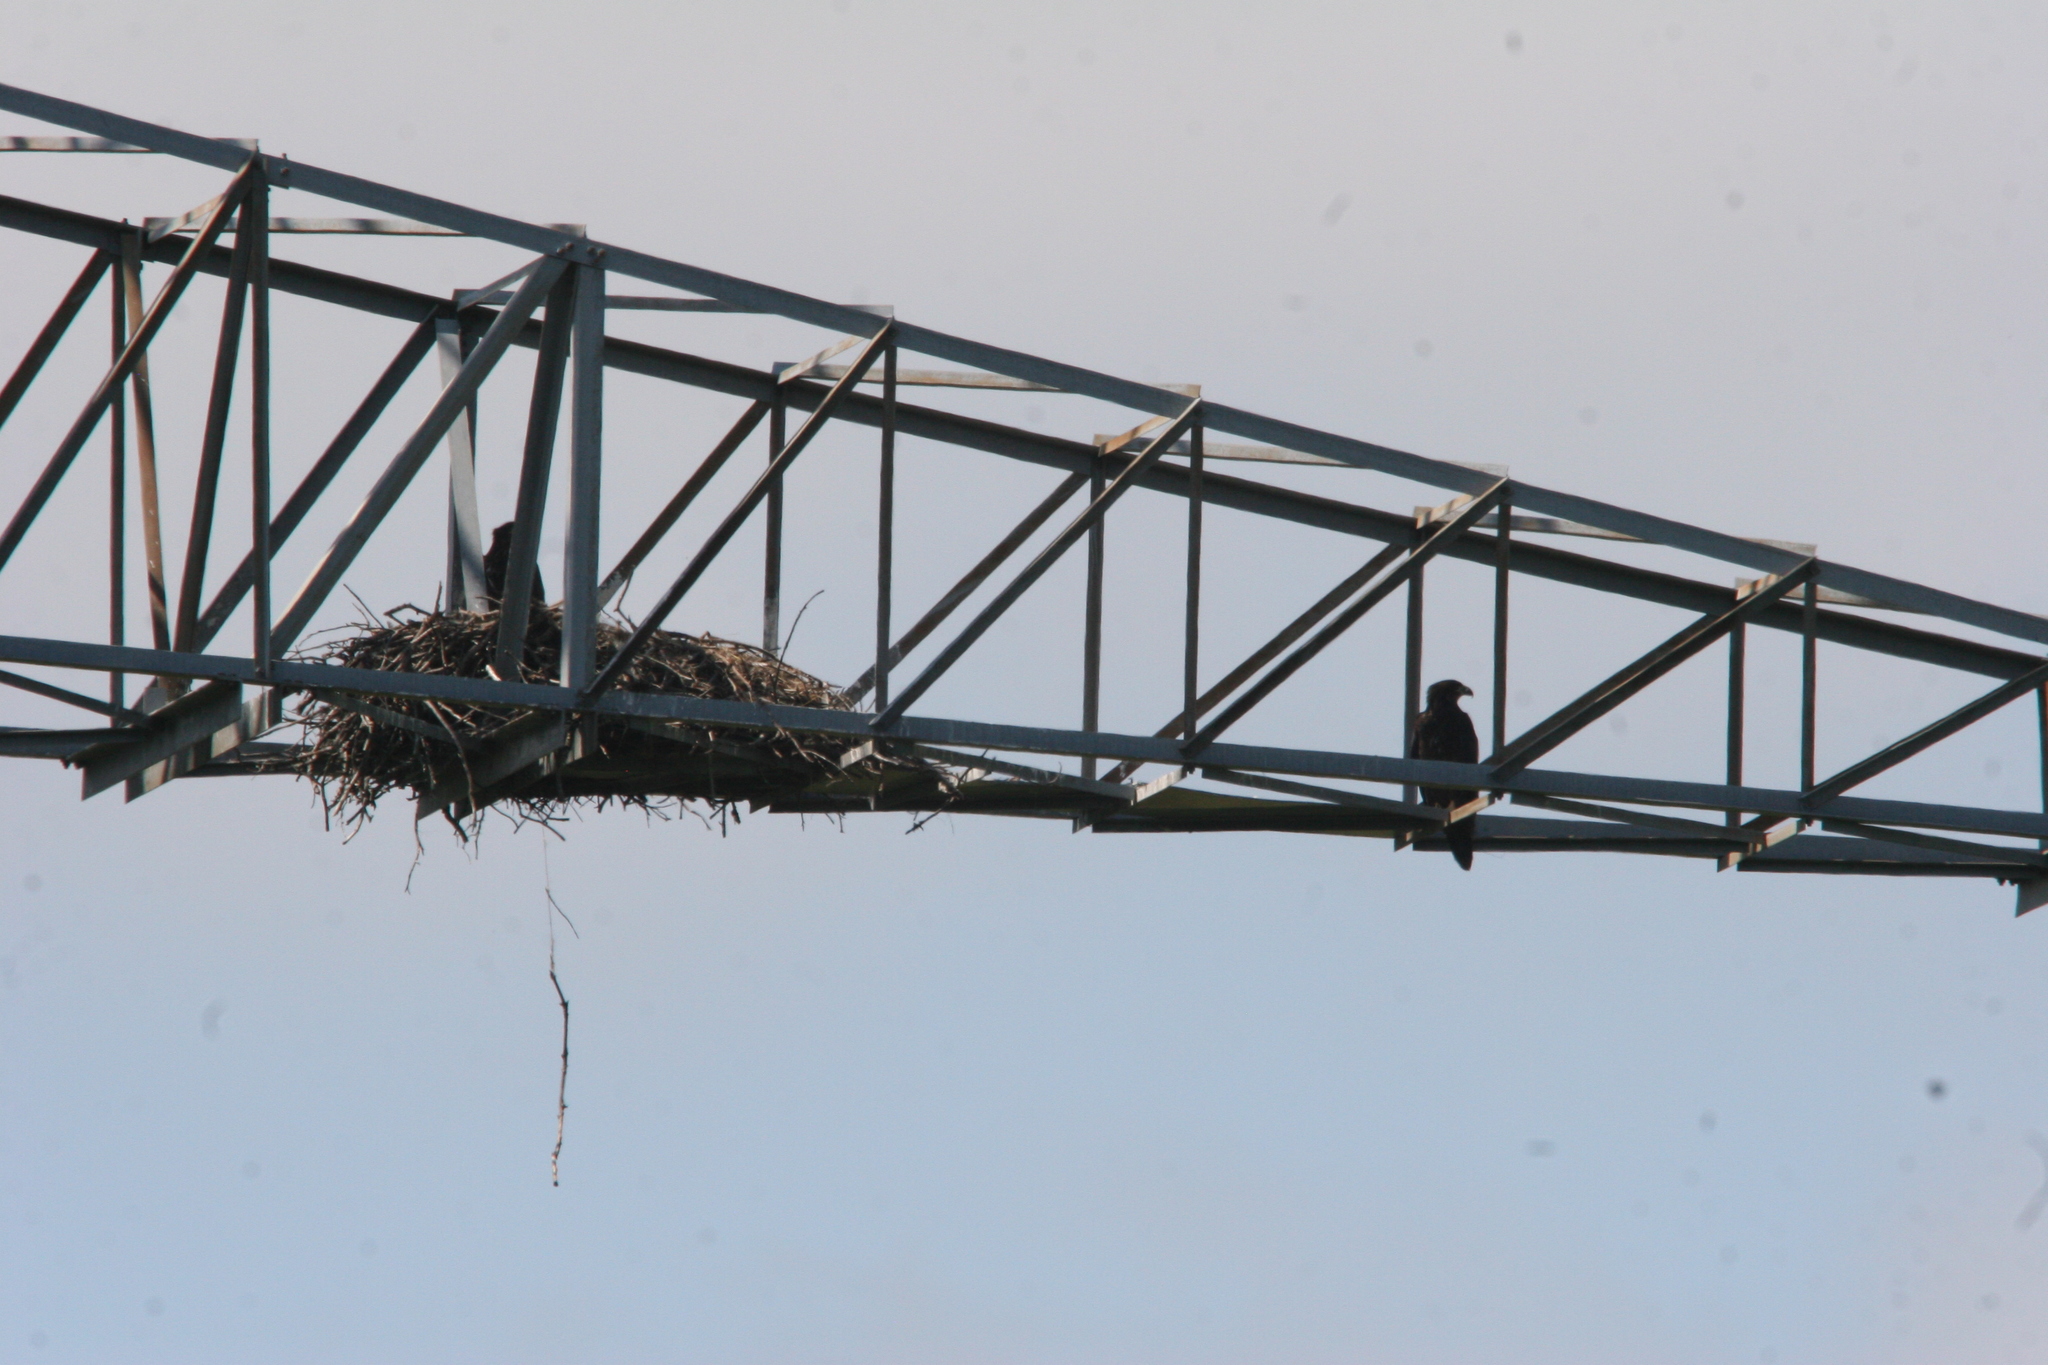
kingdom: Animalia
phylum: Chordata
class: Aves
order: Accipitriformes
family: Accipitridae
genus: Haliaeetus
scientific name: Haliaeetus leucocephalus
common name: Bald eagle
